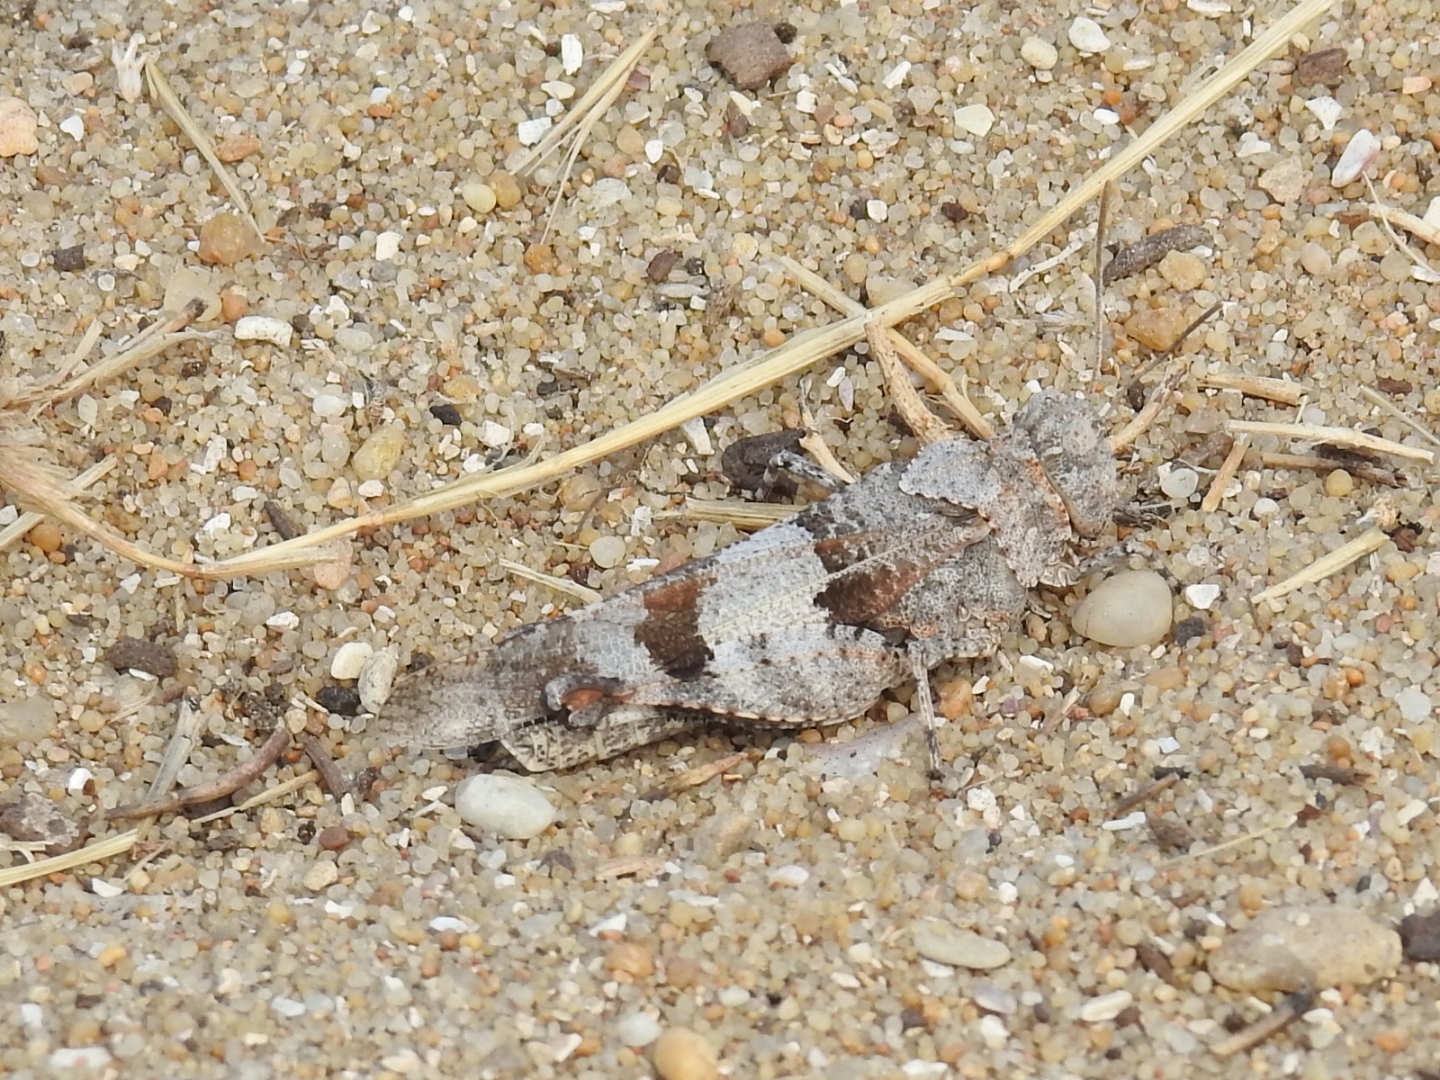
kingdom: Animalia
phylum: Arthropoda
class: Insecta
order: Orthoptera
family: Acrididae
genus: Oedipoda
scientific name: Oedipoda caerulescens
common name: Blue-winged grasshopper
